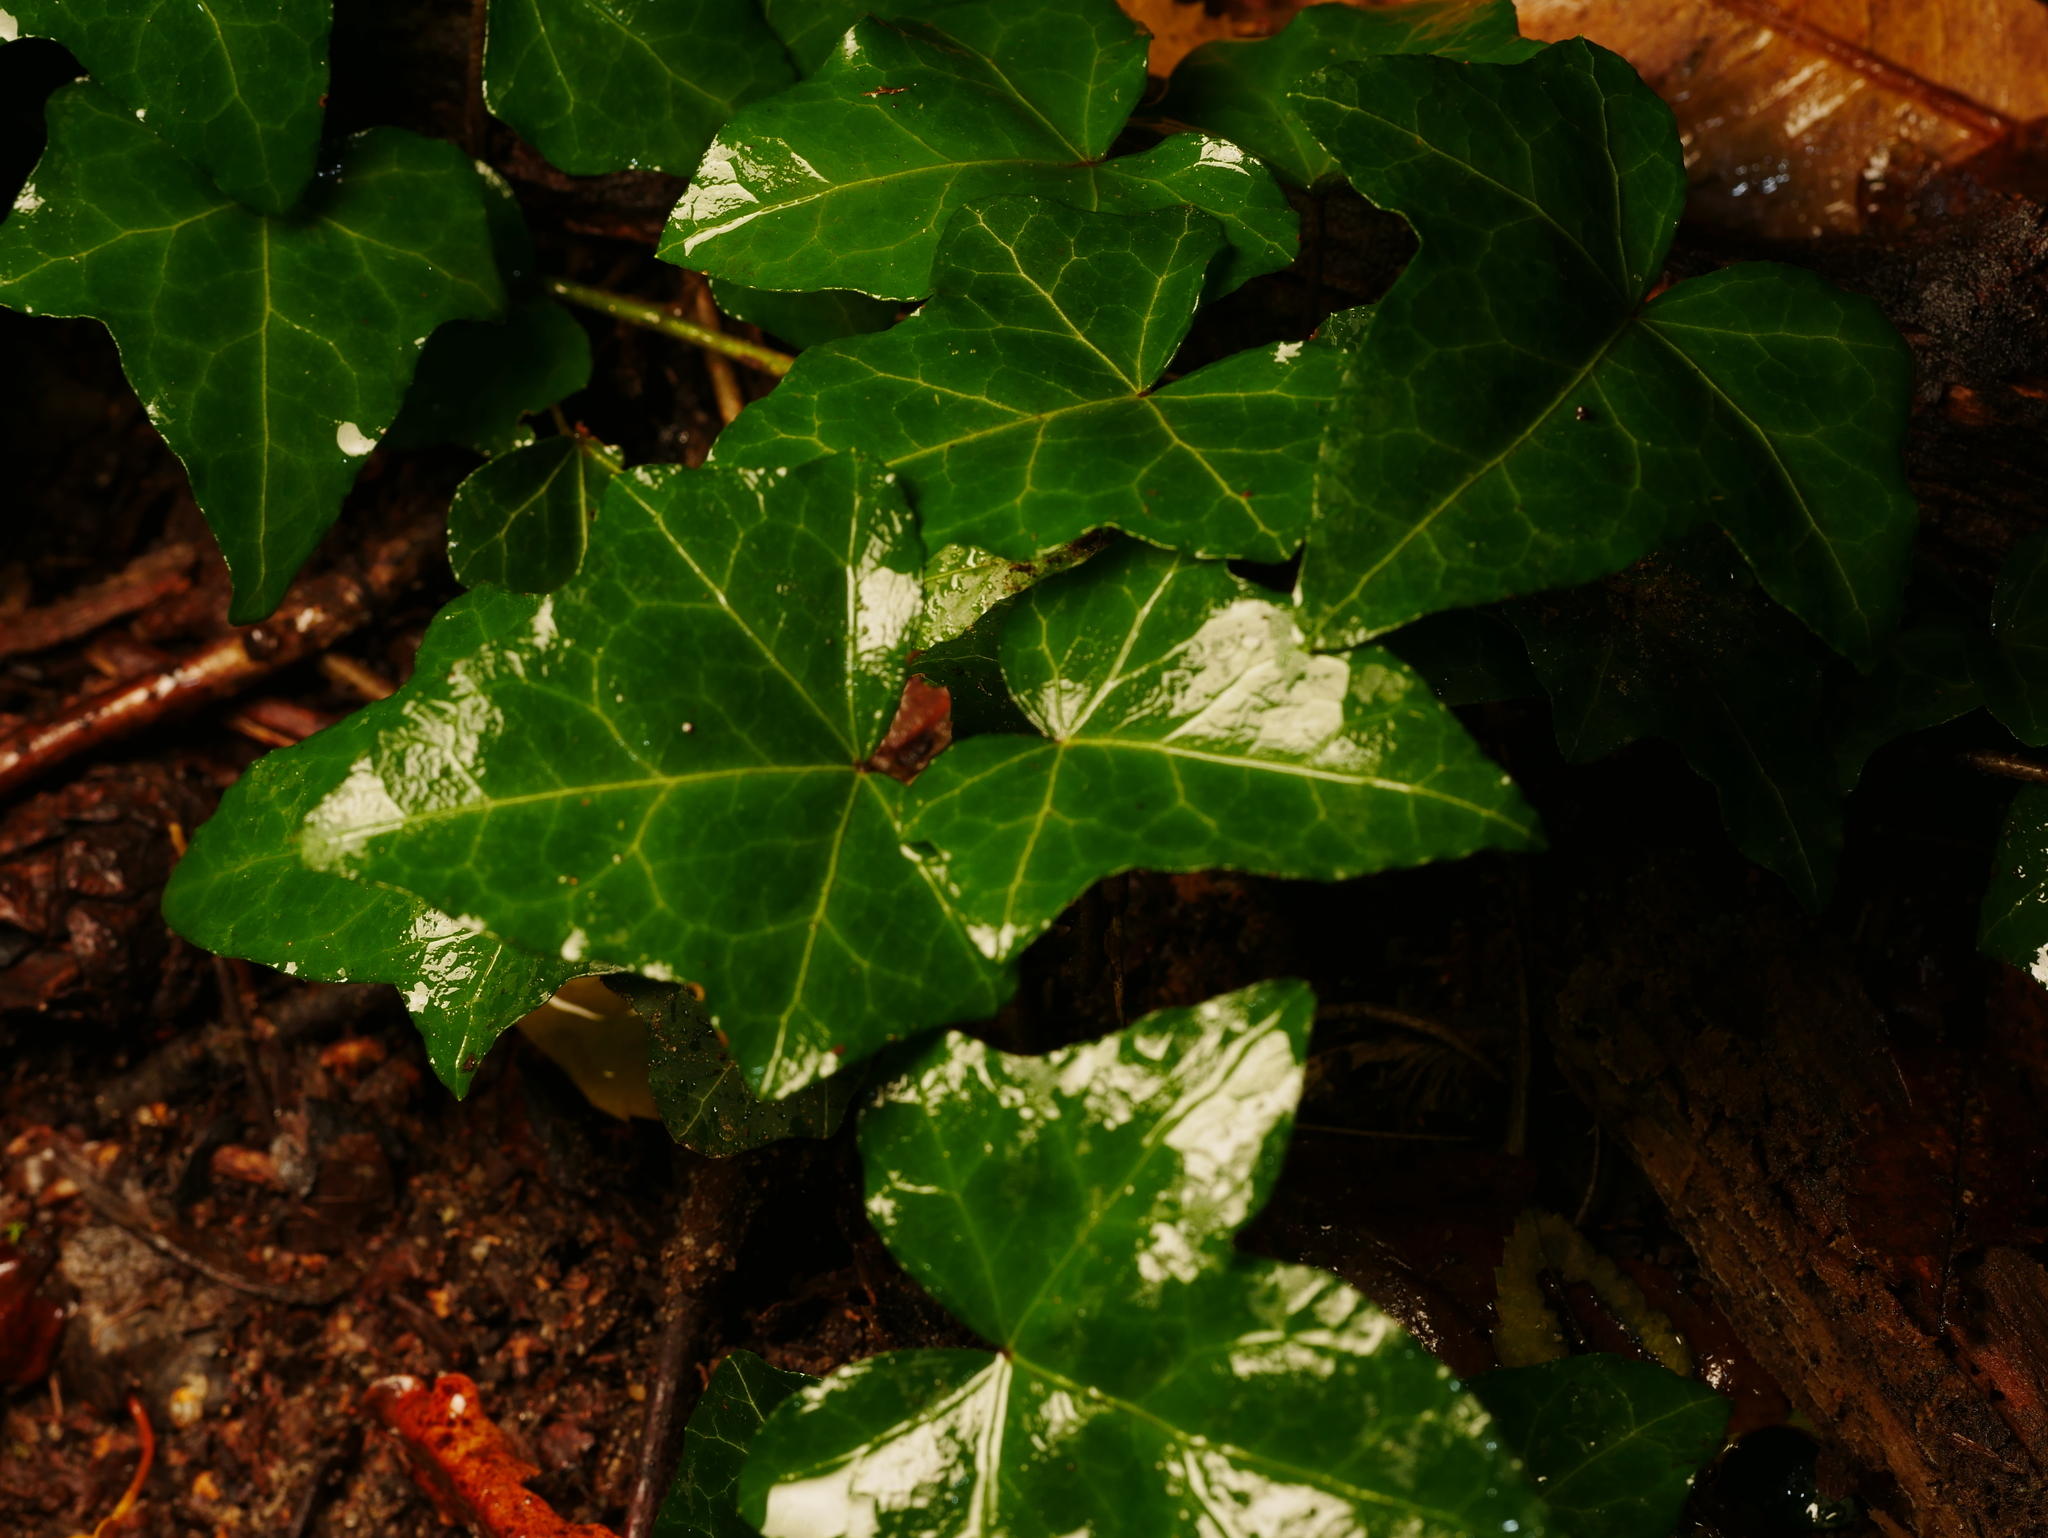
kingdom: Plantae
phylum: Tracheophyta
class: Magnoliopsida
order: Apiales
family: Araliaceae
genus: Hedera
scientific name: Hedera helix
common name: Ivy
